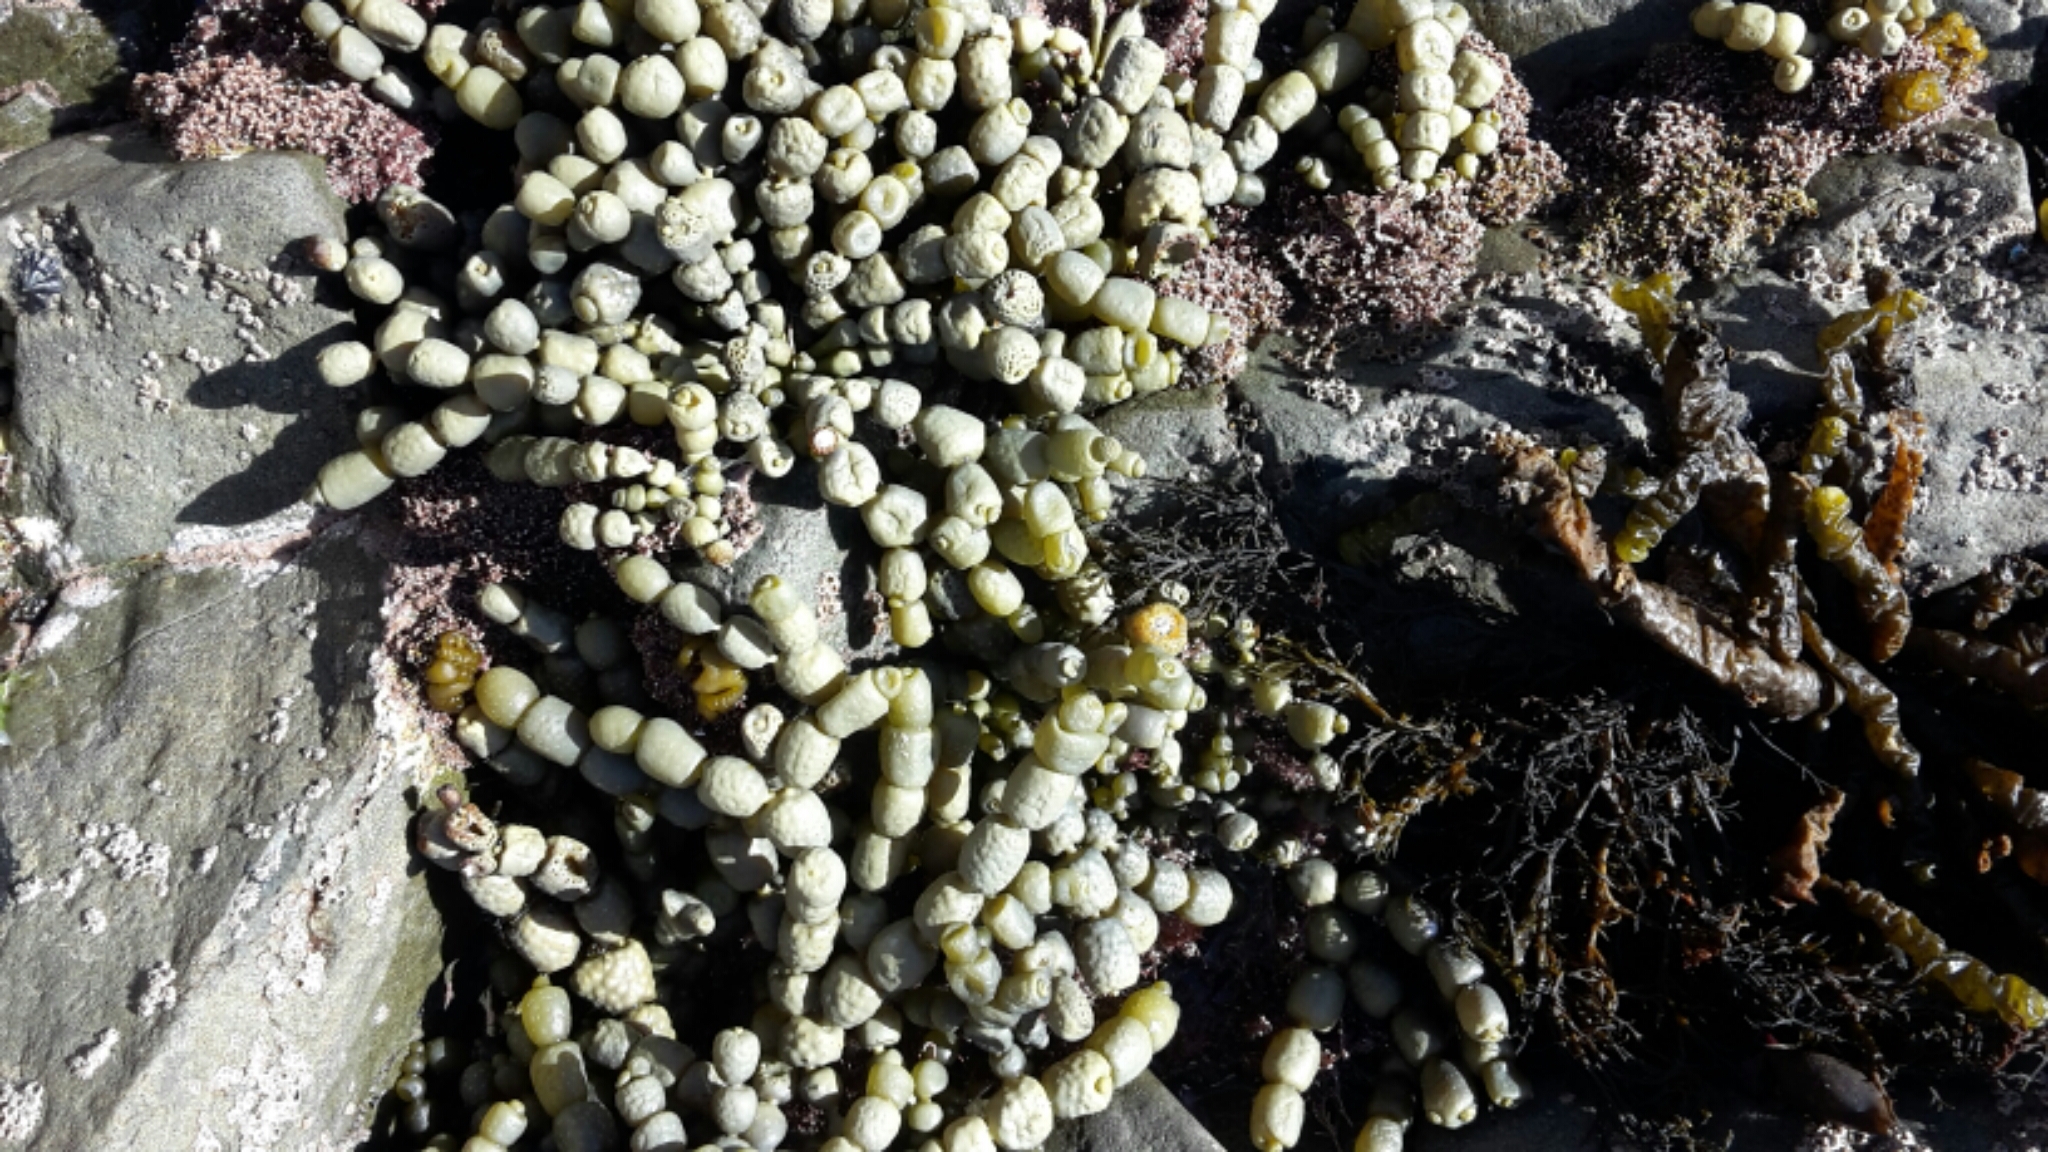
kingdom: Chromista
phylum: Ochrophyta
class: Phaeophyceae
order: Fucales
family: Hormosiraceae
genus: Hormosira
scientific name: Hormosira banksii
